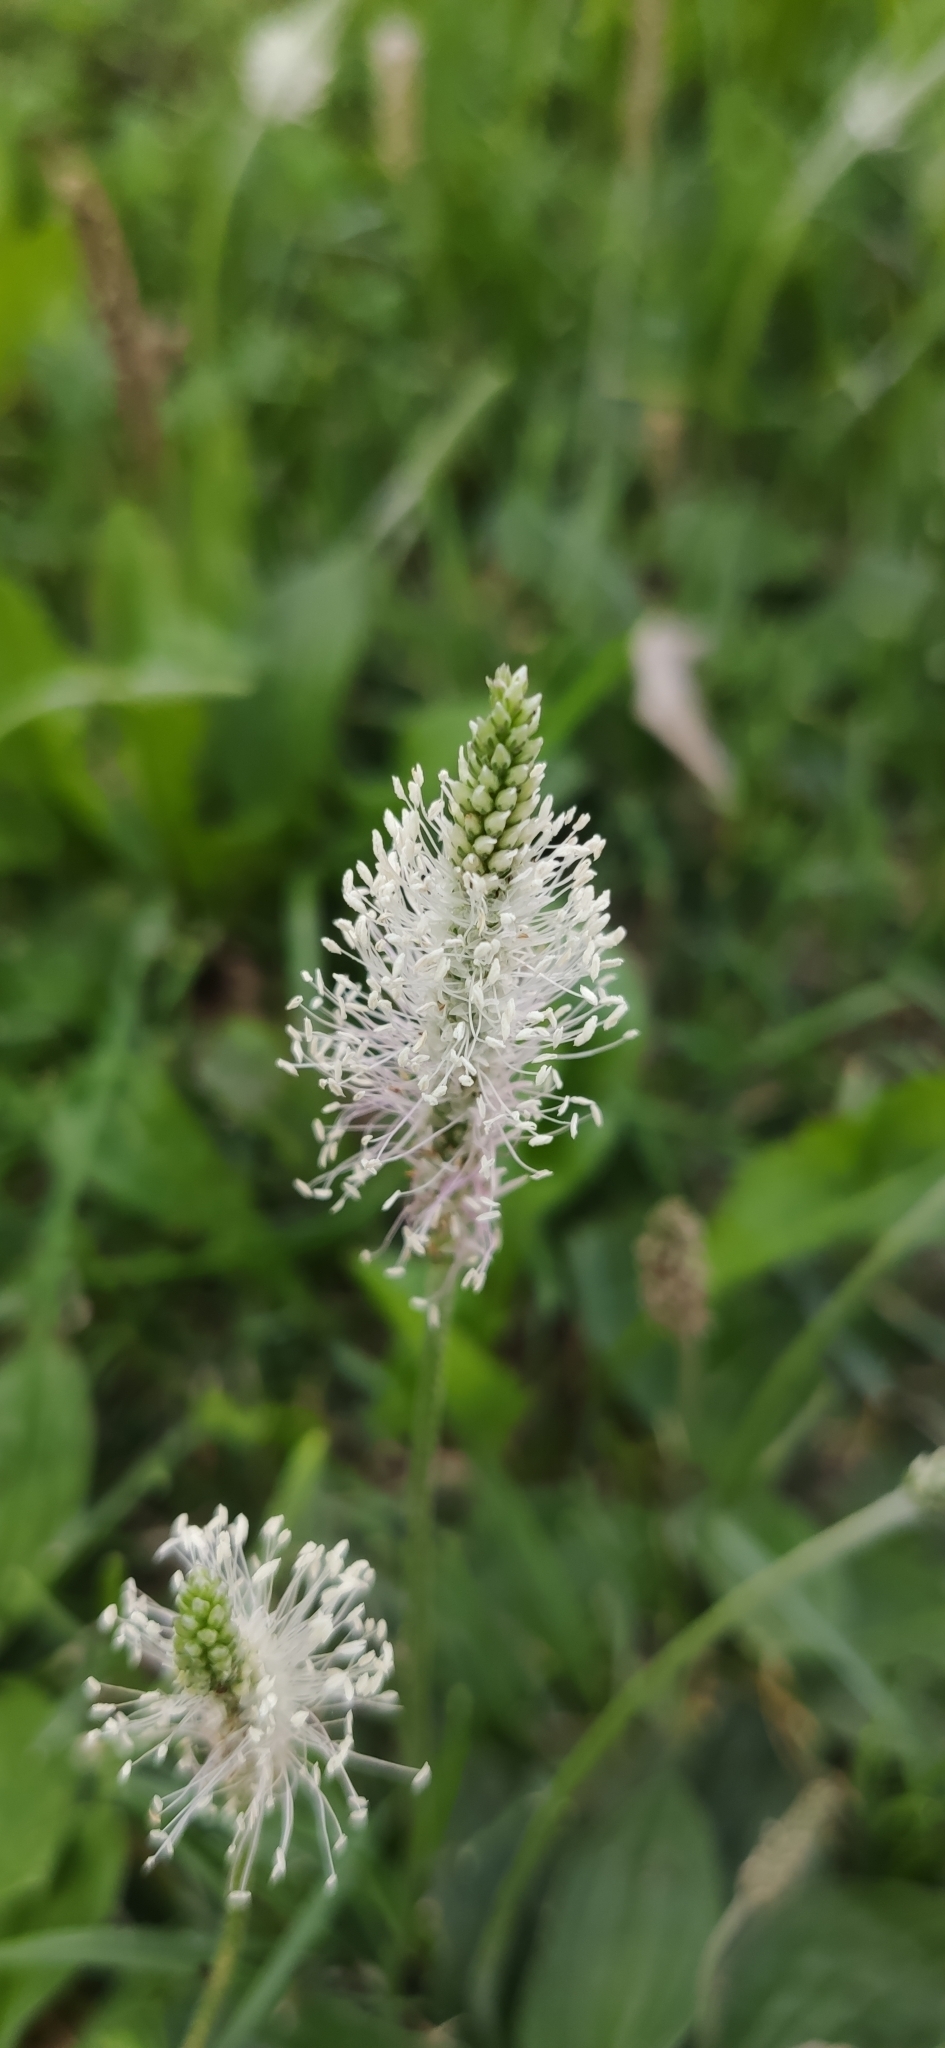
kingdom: Plantae
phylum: Tracheophyta
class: Magnoliopsida
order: Lamiales
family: Plantaginaceae
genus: Plantago
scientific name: Plantago media
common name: Hoary plantain
